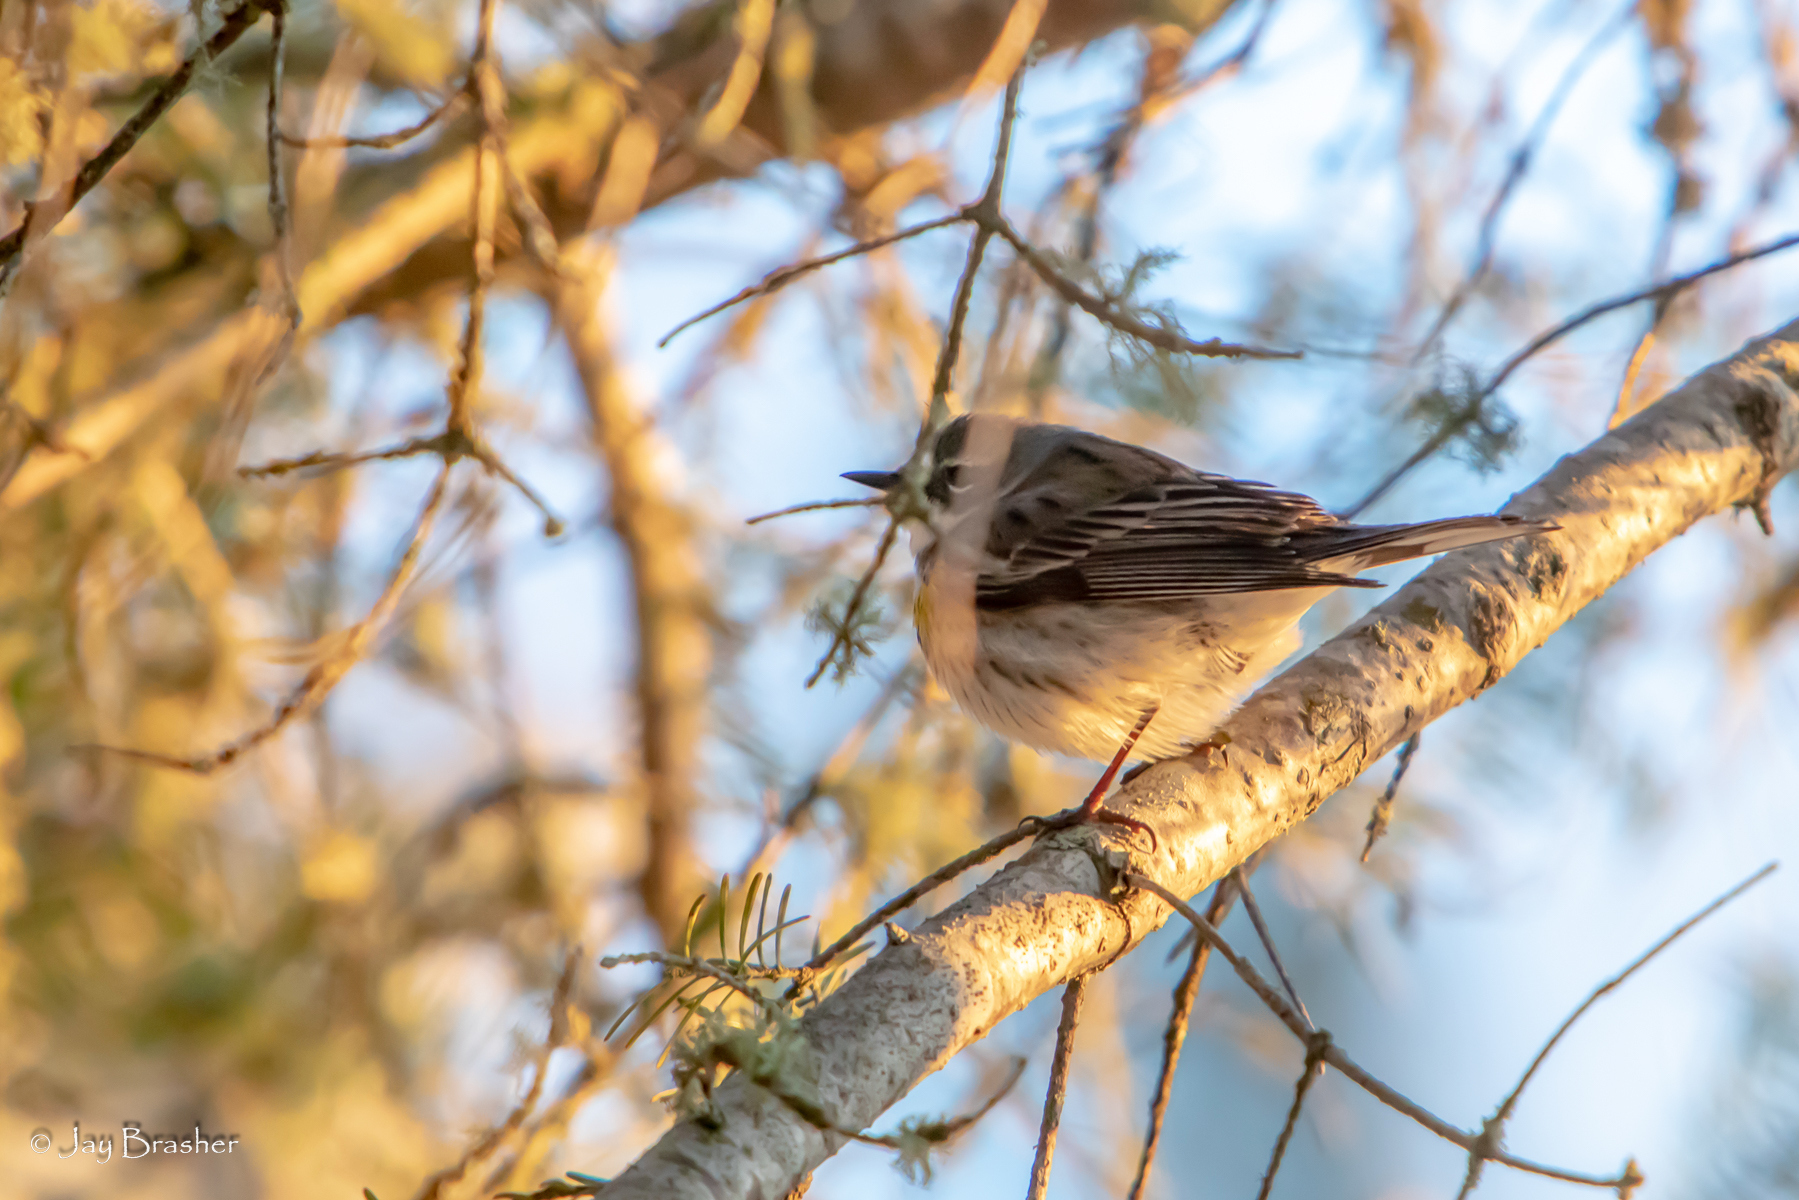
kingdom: Animalia
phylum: Chordata
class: Aves
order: Passeriformes
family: Parulidae
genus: Setophaga
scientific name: Setophaga coronata
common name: Myrtle warbler
